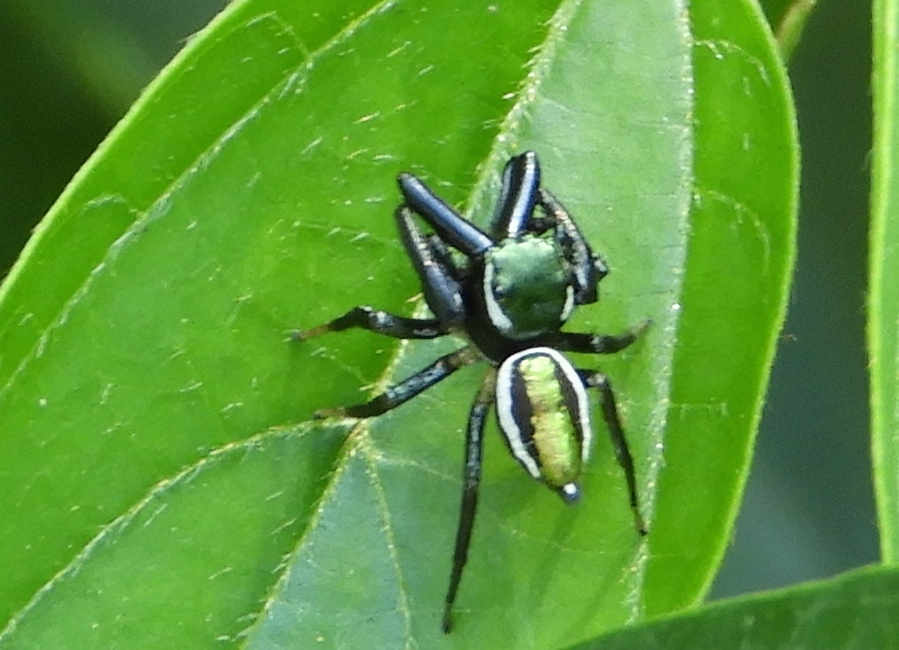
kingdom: Animalia
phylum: Arthropoda
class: Arachnida
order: Araneae
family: Salticidae
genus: Messua
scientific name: Messua
